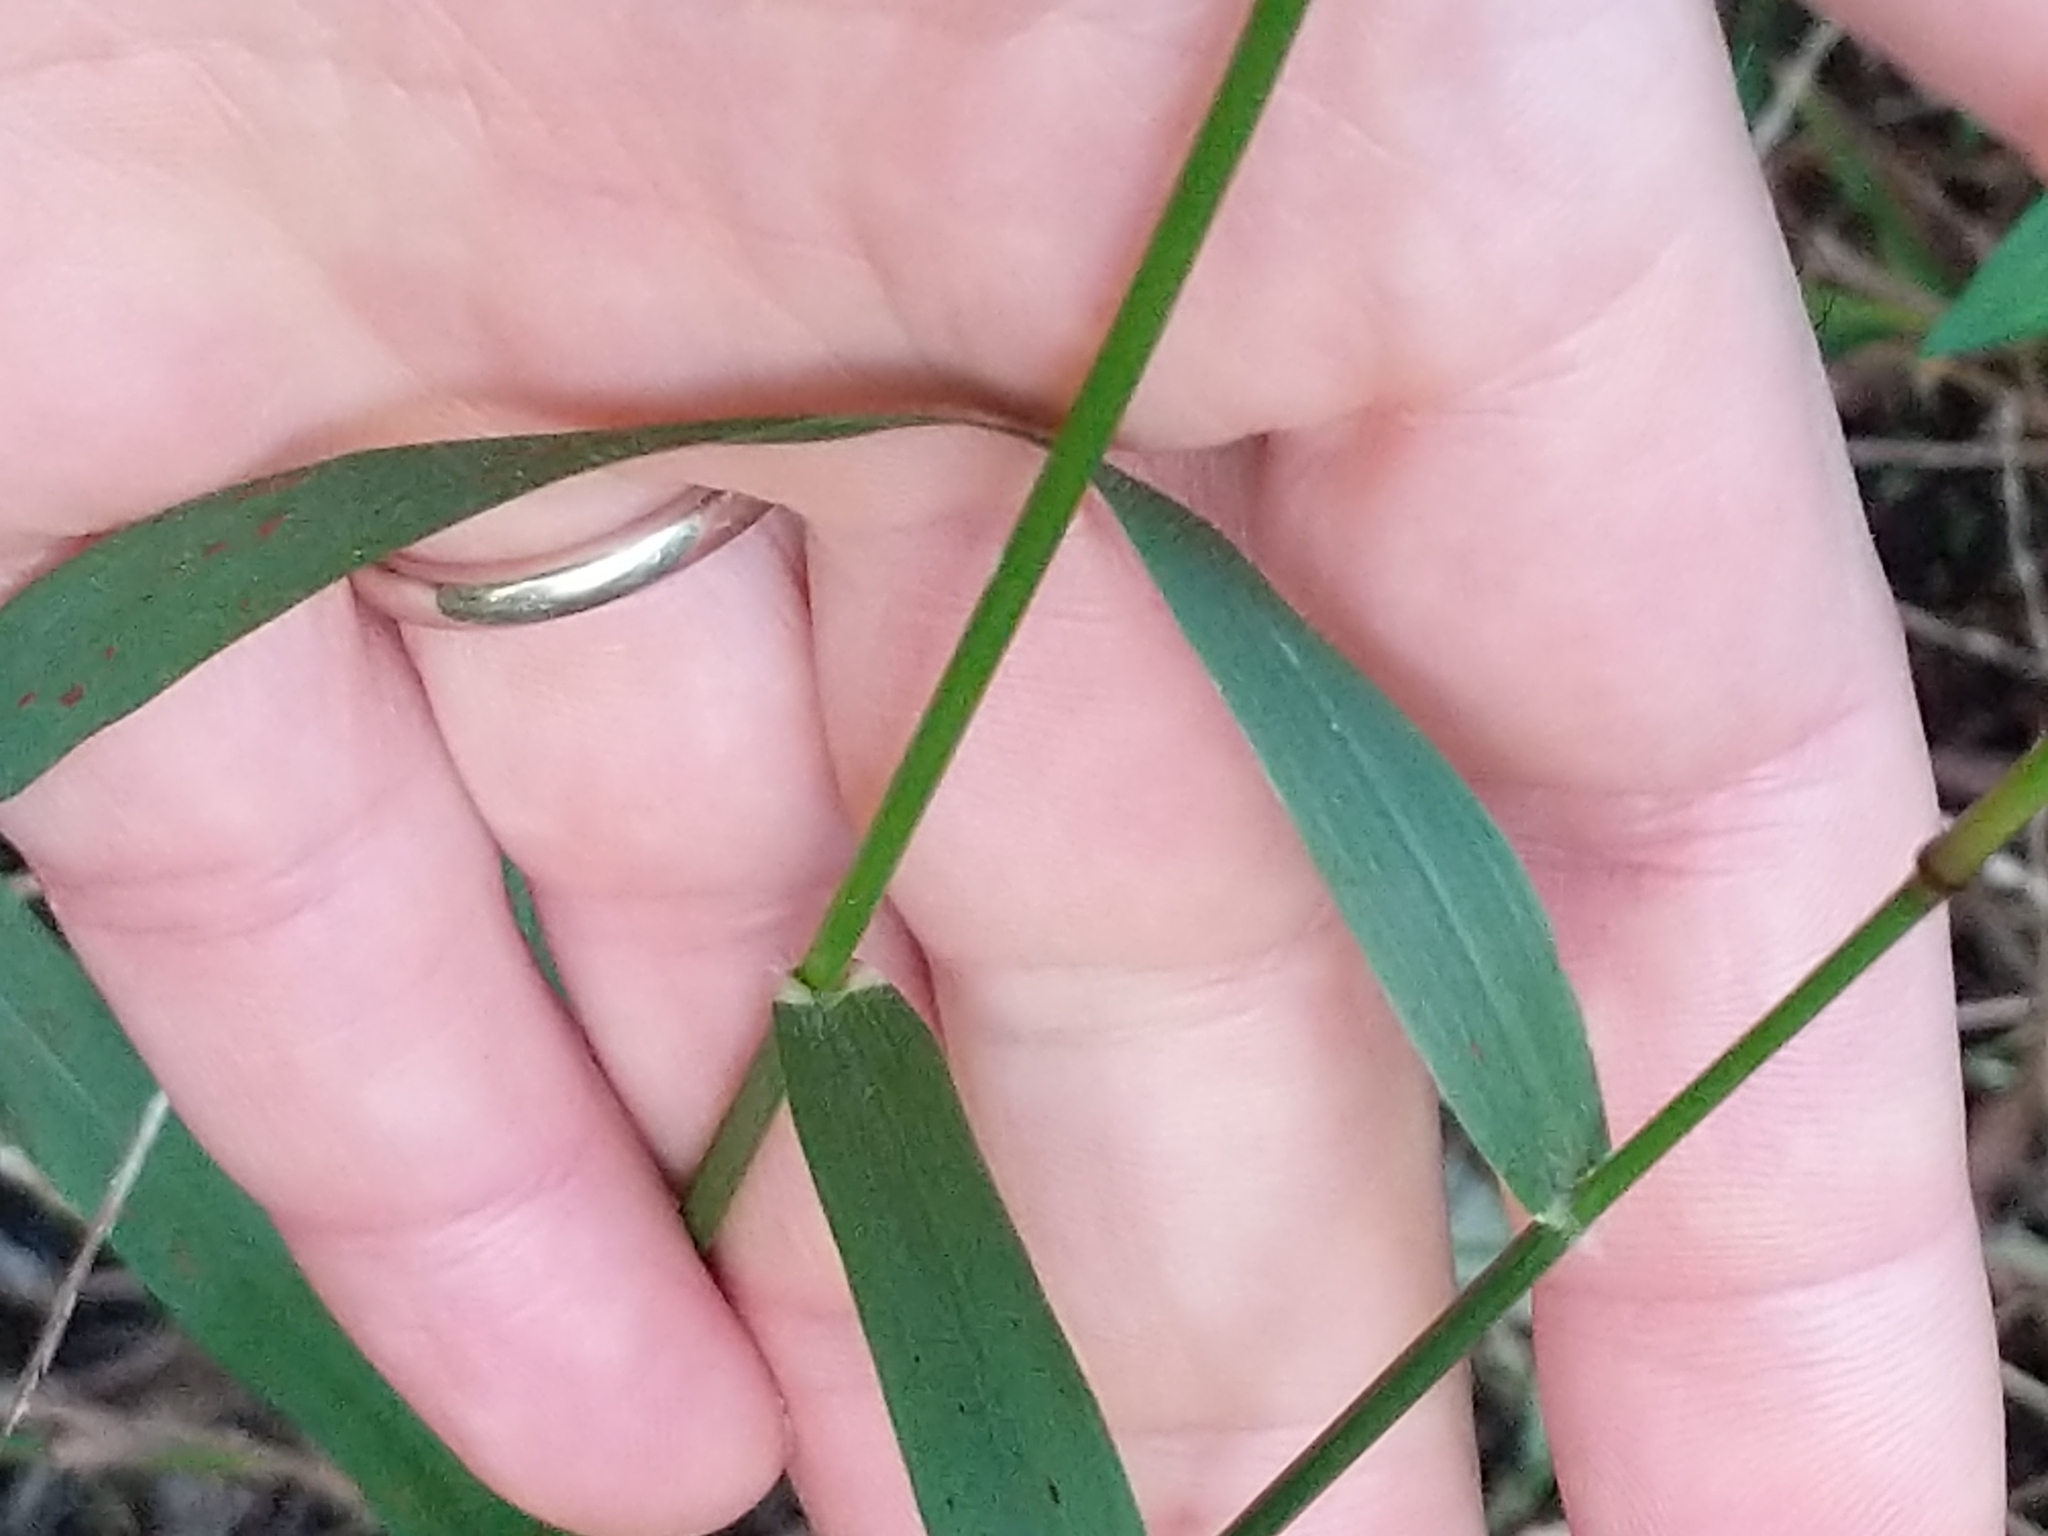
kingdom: Plantae
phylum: Tracheophyta
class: Liliopsida
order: Poales
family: Poaceae
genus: Tridens
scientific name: Tridens flavus
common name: Purpletop
